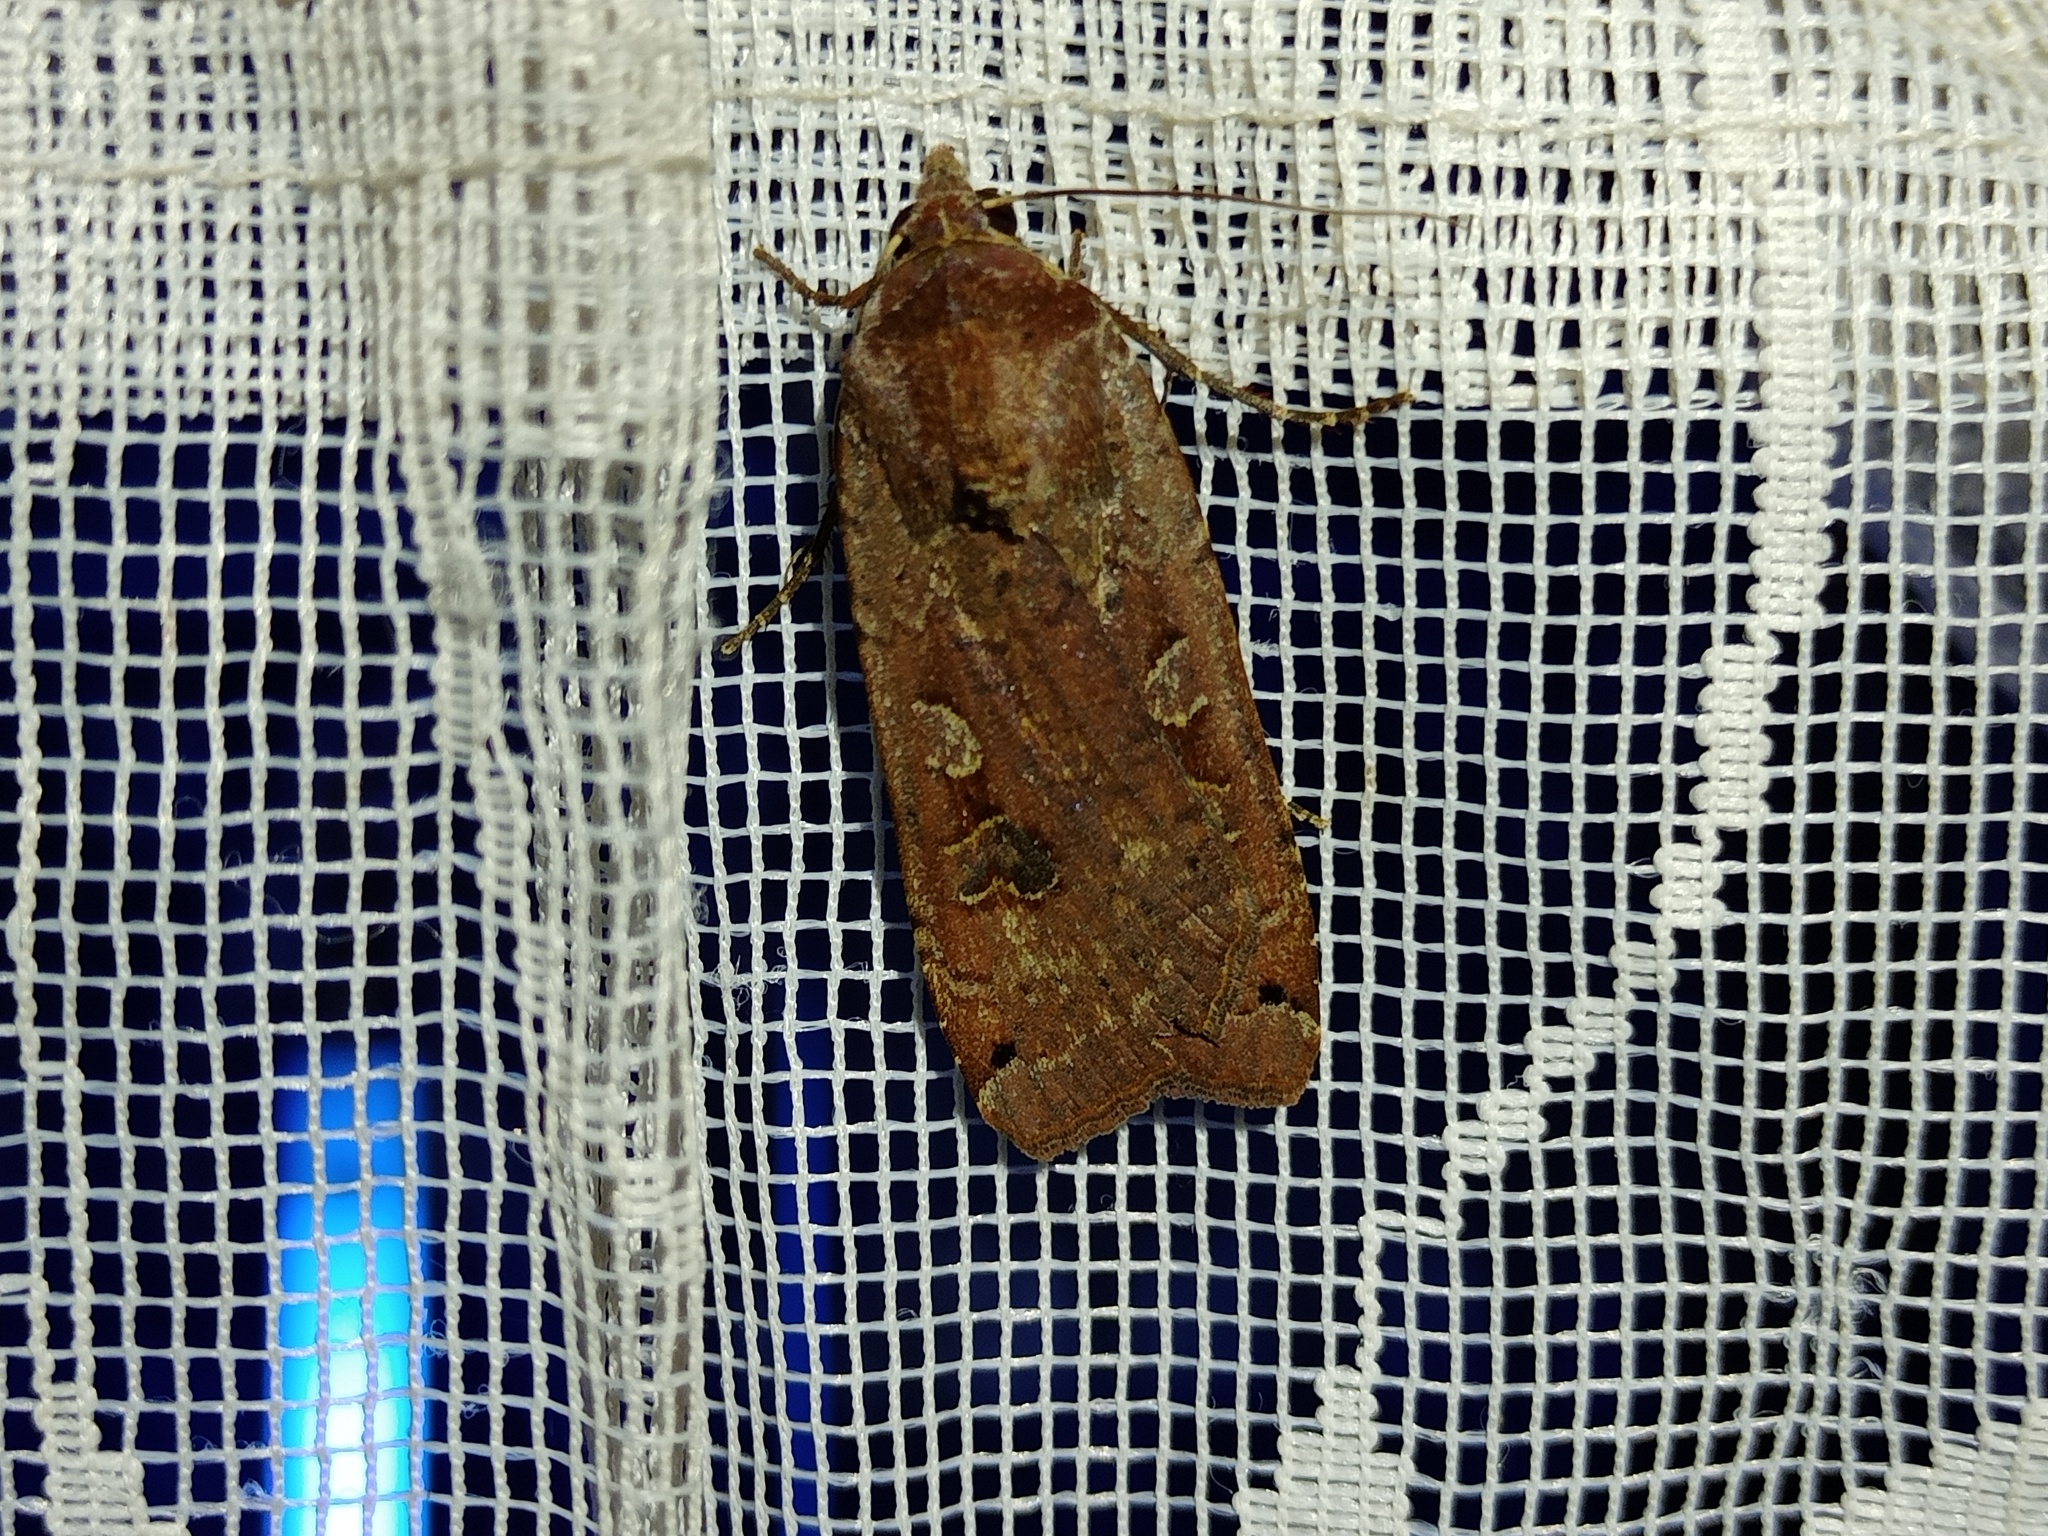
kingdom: Animalia
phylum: Arthropoda
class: Insecta
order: Lepidoptera
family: Noctuidae
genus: Noctua
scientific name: Noctua pronuba
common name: Large yellow underwing
